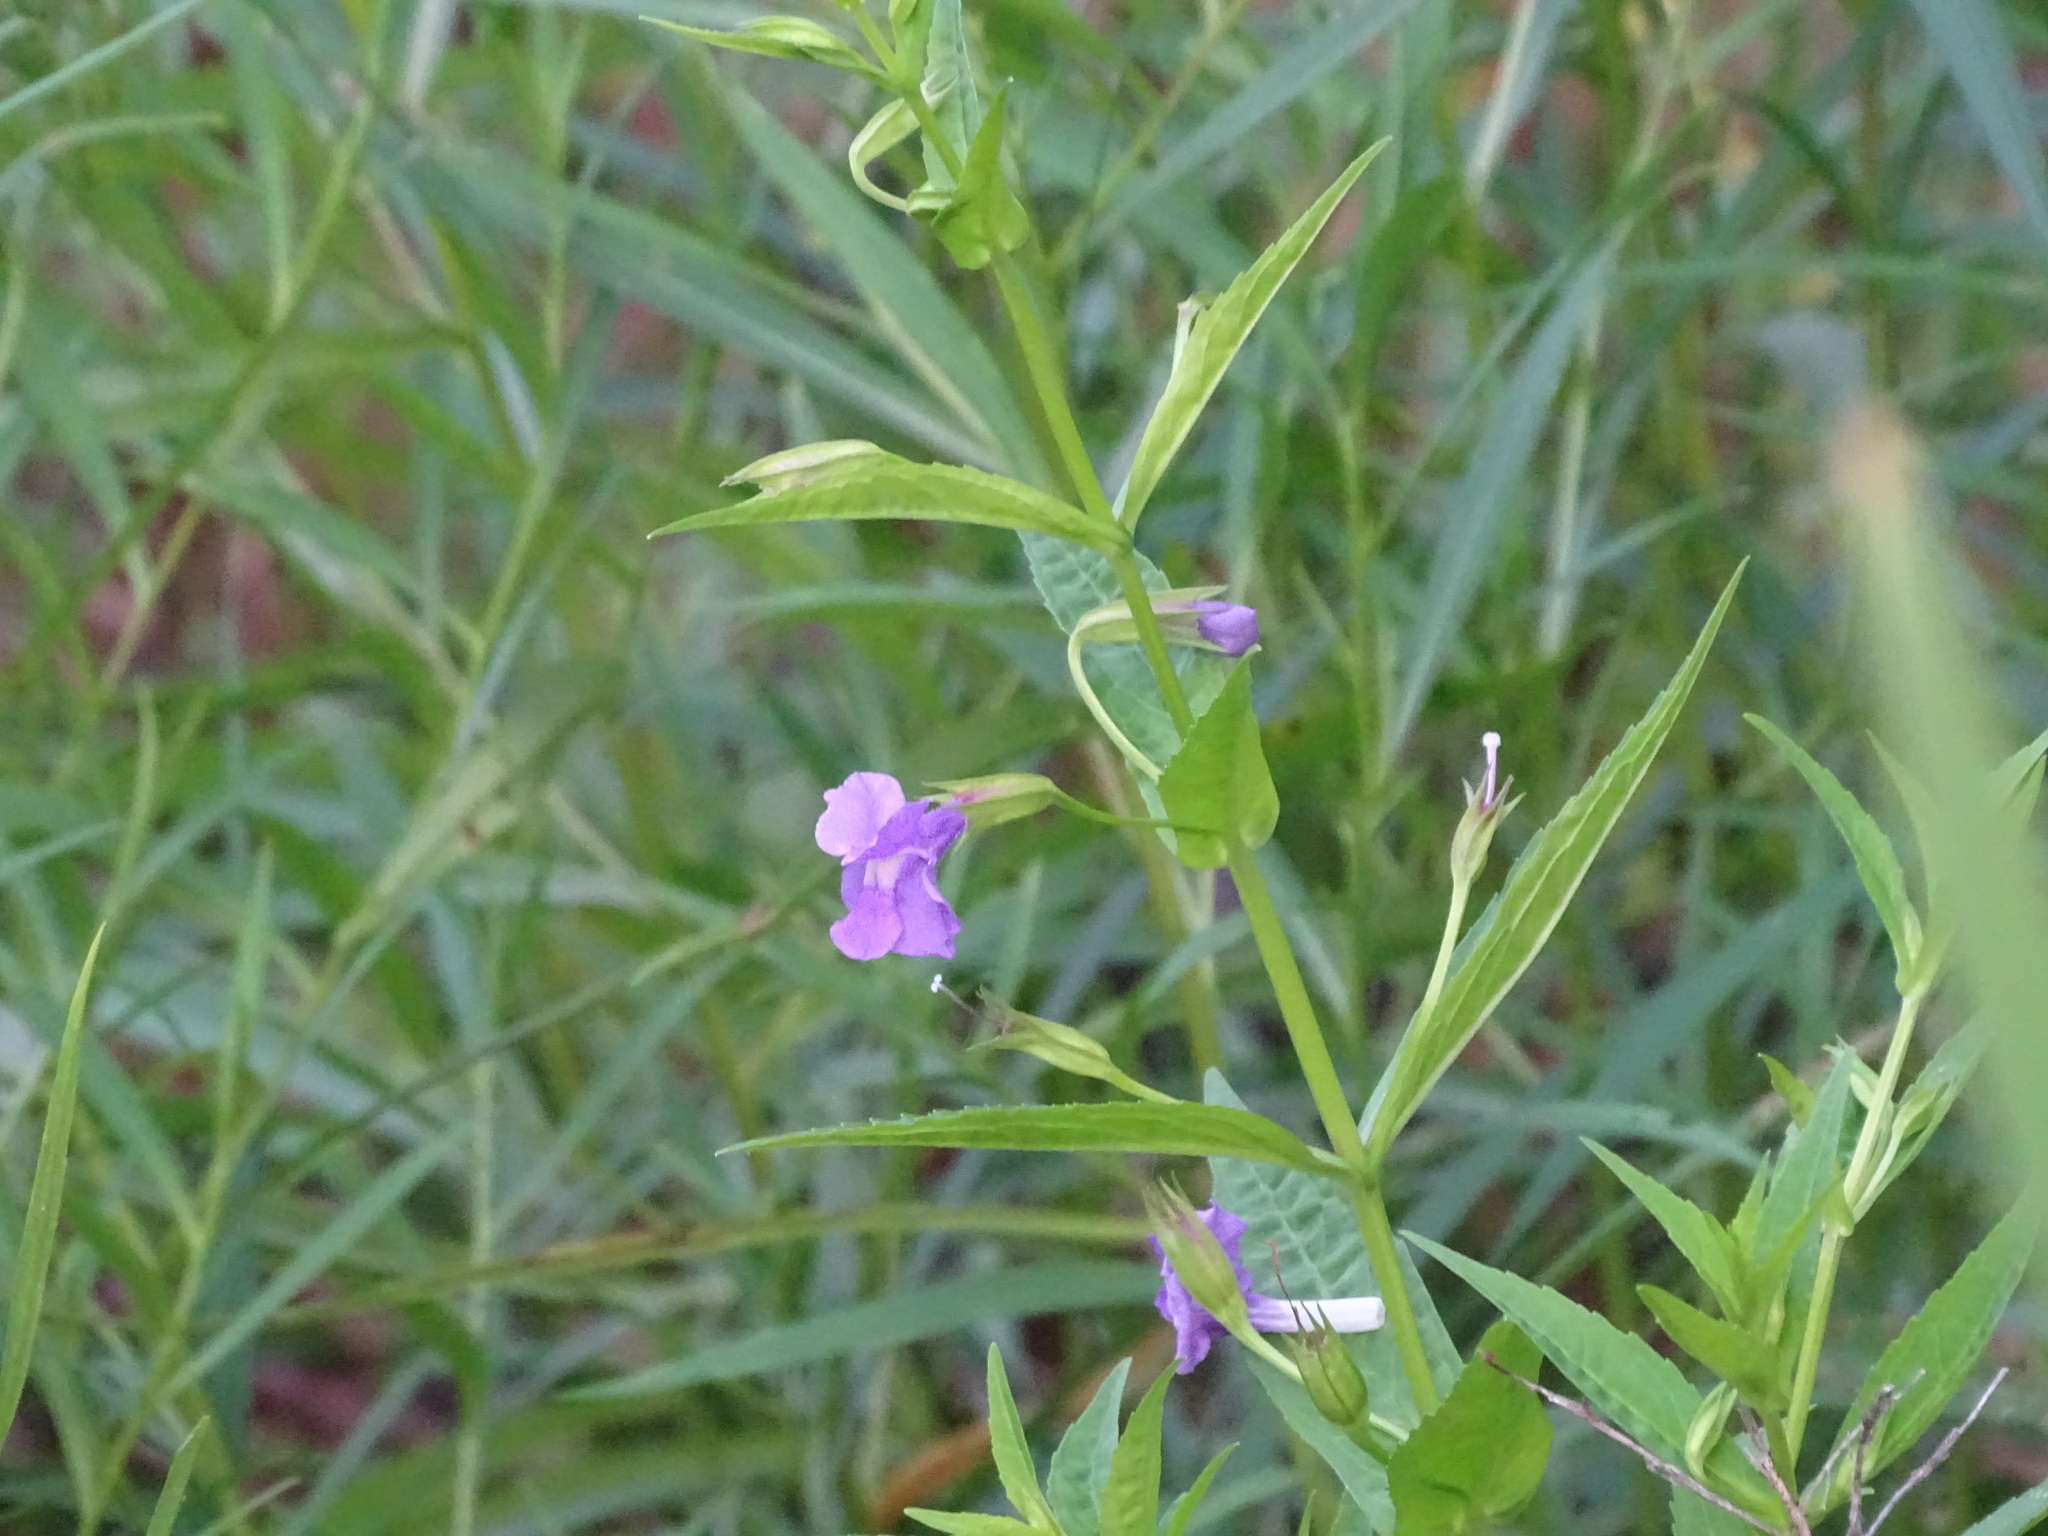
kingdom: Plantae
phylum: Tracheophyta
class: Magnoliopsida
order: Lamiales
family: Phrymaceae
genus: Mimulus
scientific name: Mimulus ringens
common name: Allegheny monkeyflower
